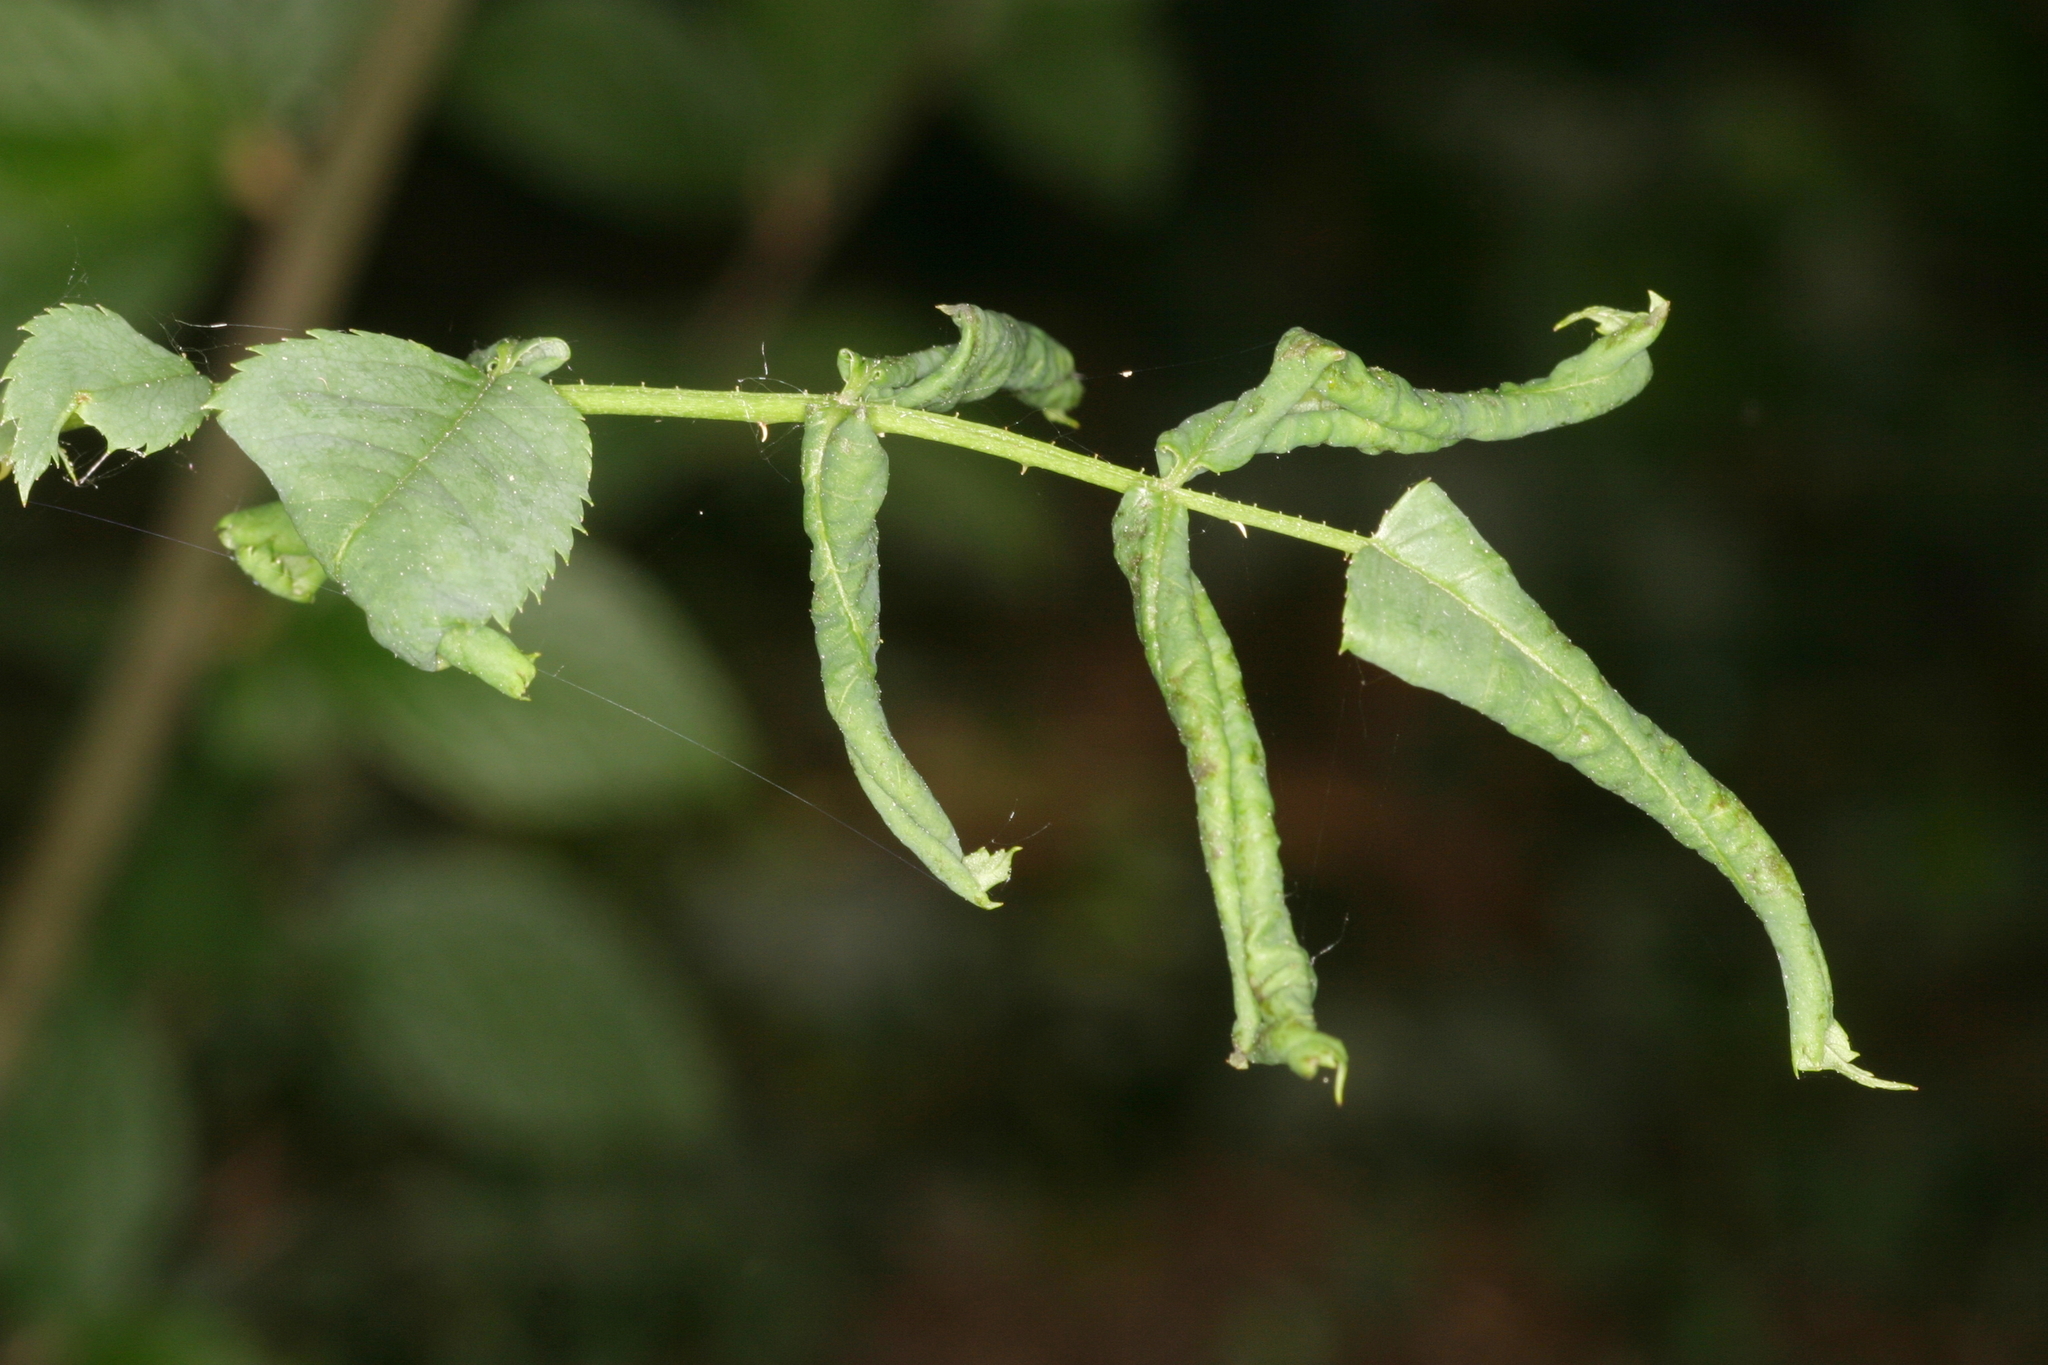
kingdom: Animalia
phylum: Arthropoda
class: Insecta
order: Hymenoptera
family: Tenthredinidae
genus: Blennocampa
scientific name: Blennocampa phyllocolpa
